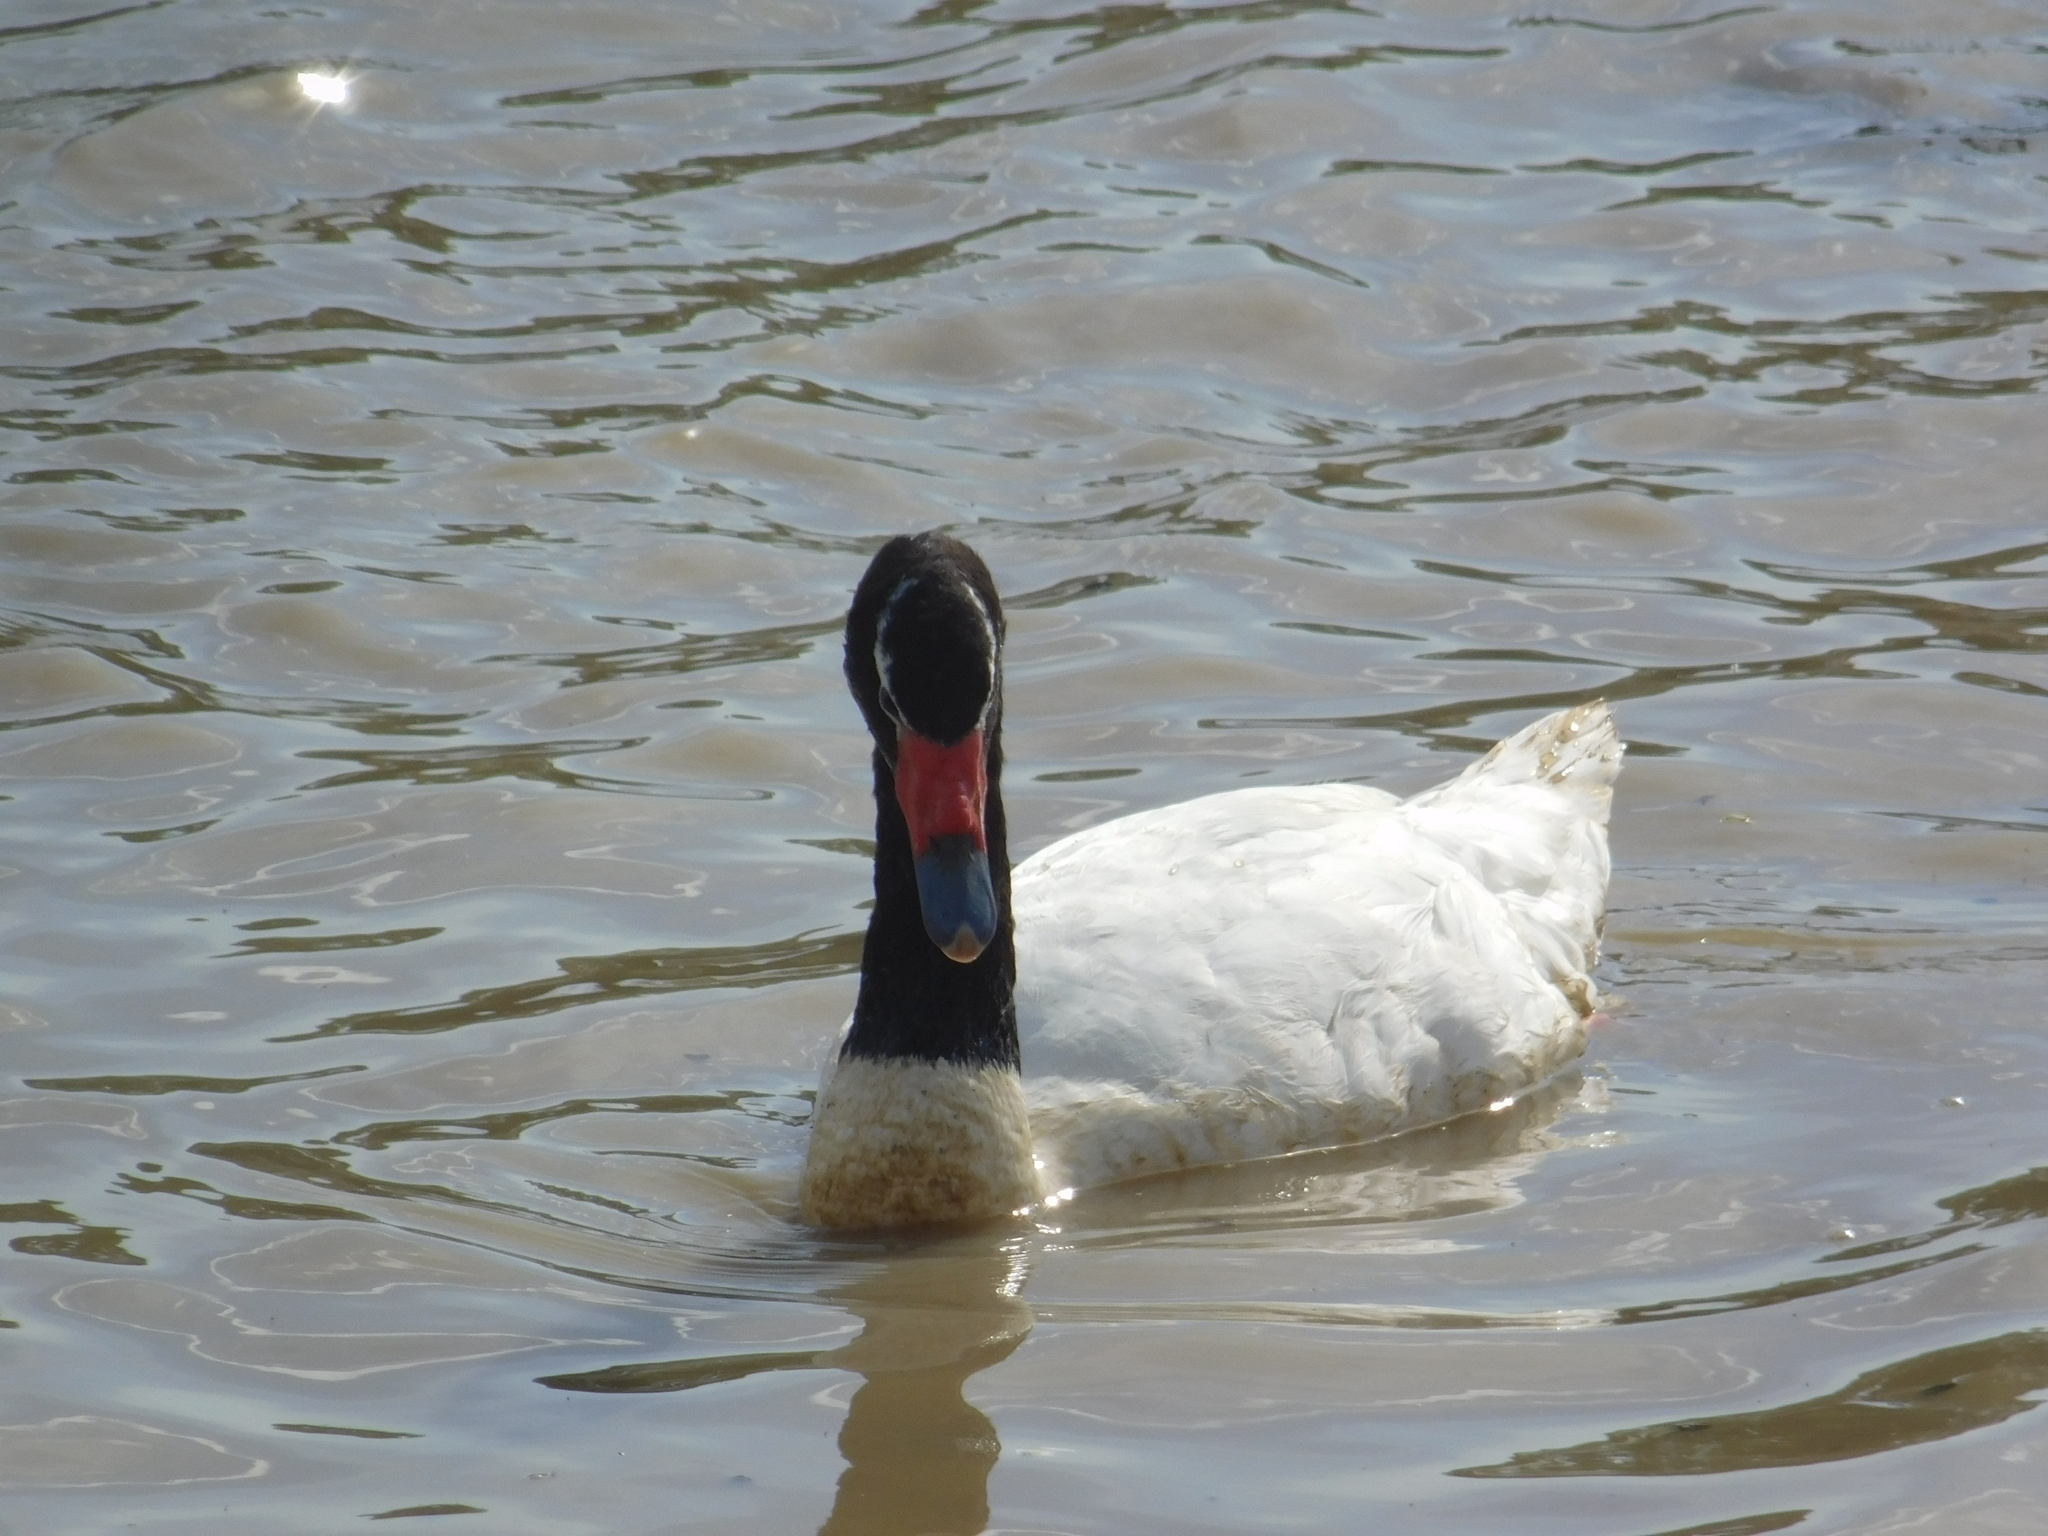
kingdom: Animalia
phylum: Chordata
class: Aves
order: Anseriformes
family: Anatidae
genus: Cygnus
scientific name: Cygnus melancoryphus
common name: Black-necked swan
